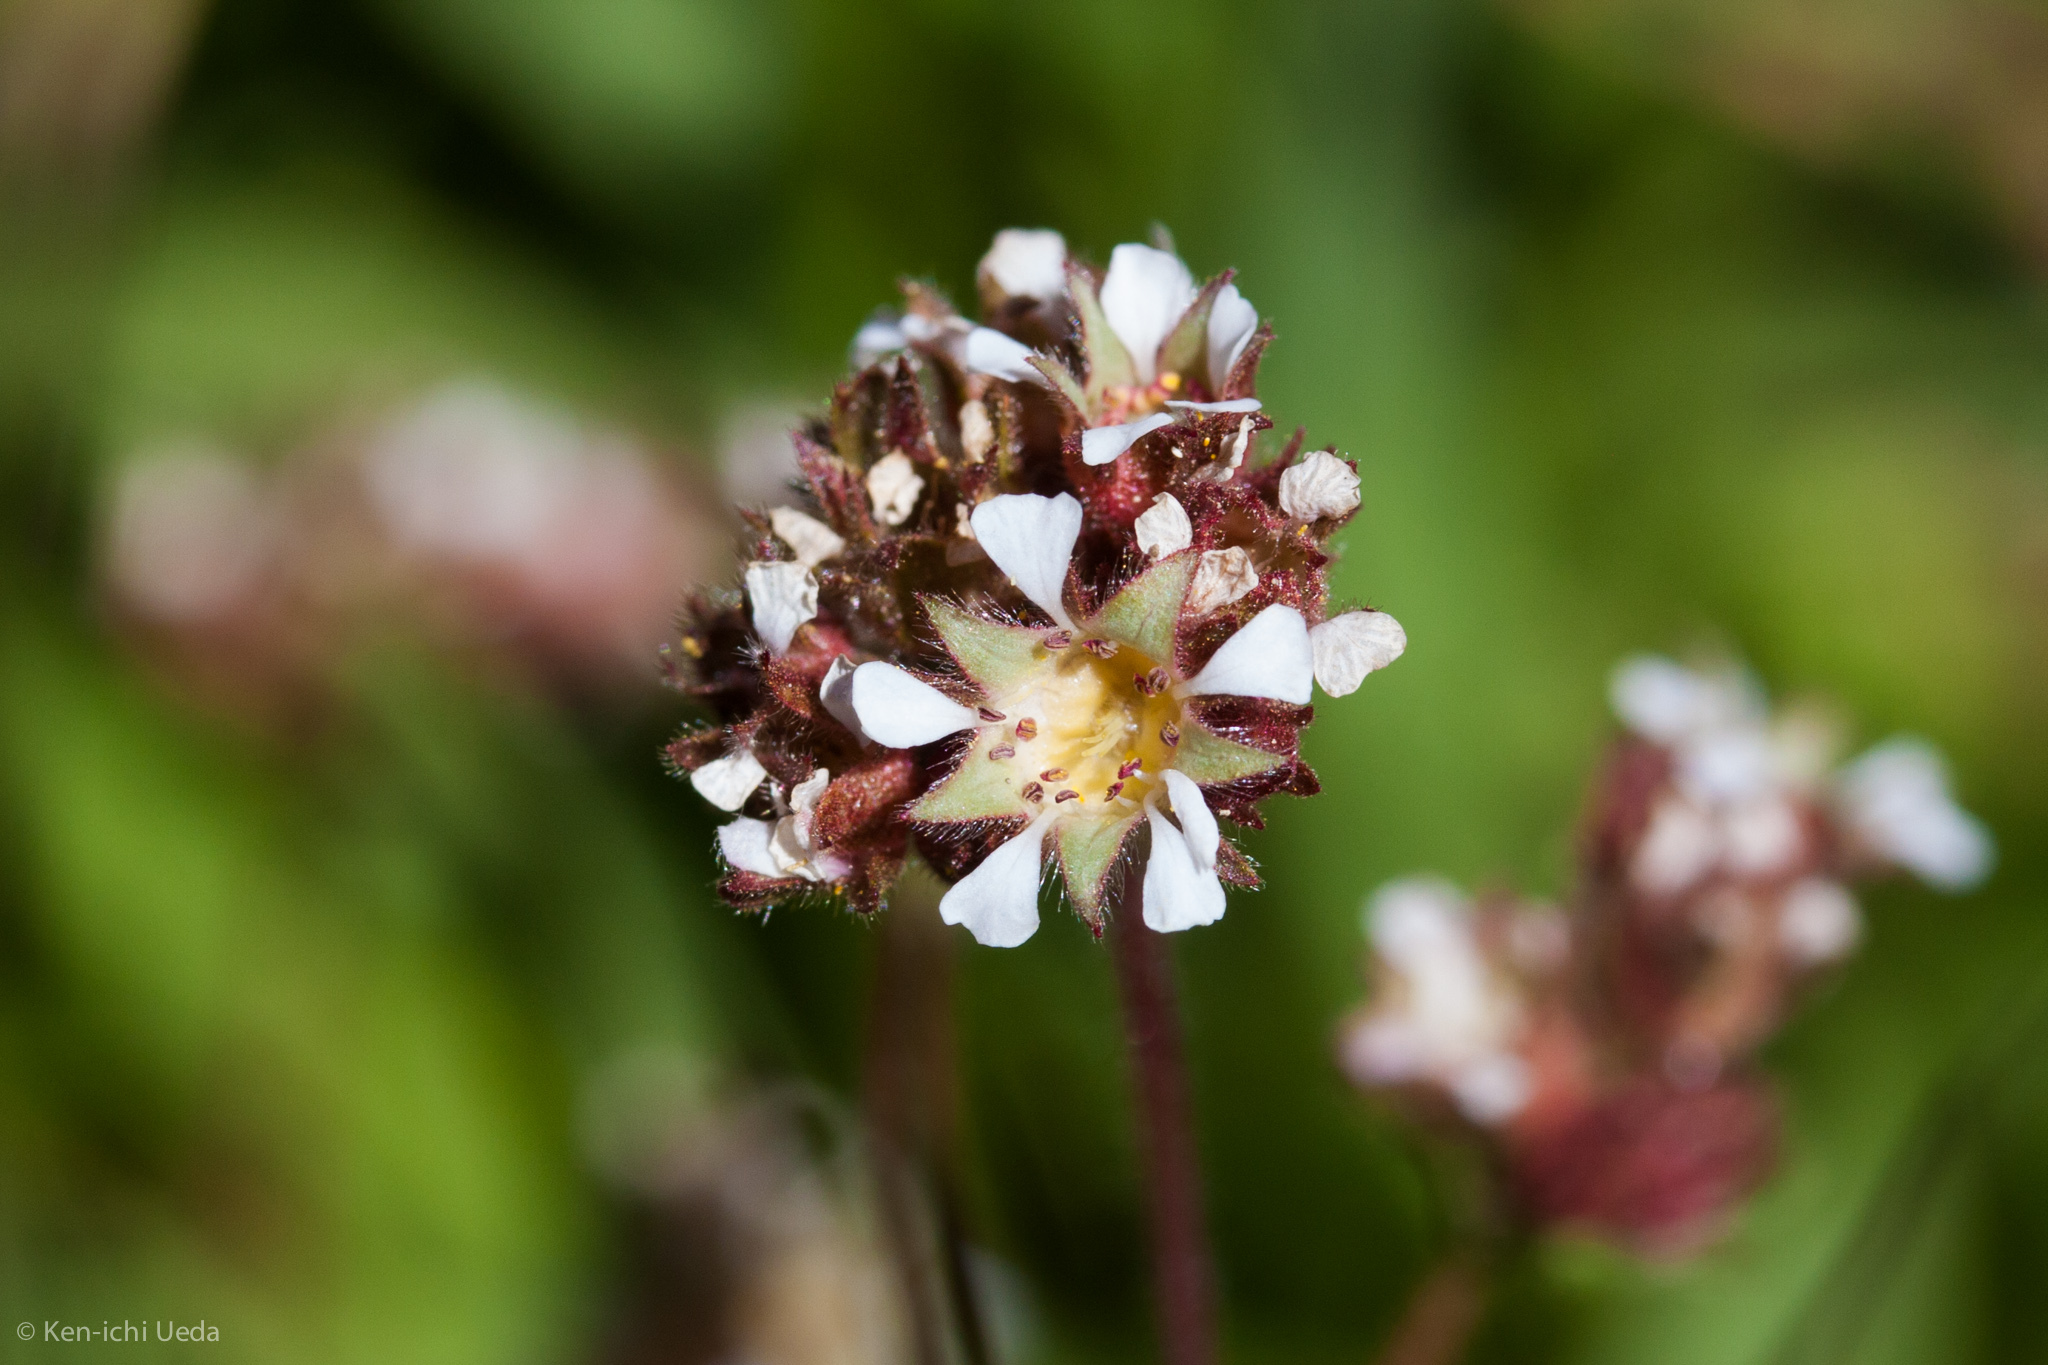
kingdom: Plantae
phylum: Tracheophyta
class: Magnoliopsida
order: Rosales
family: Rosaceae
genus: Potentilla
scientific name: Potentilla douglasii
